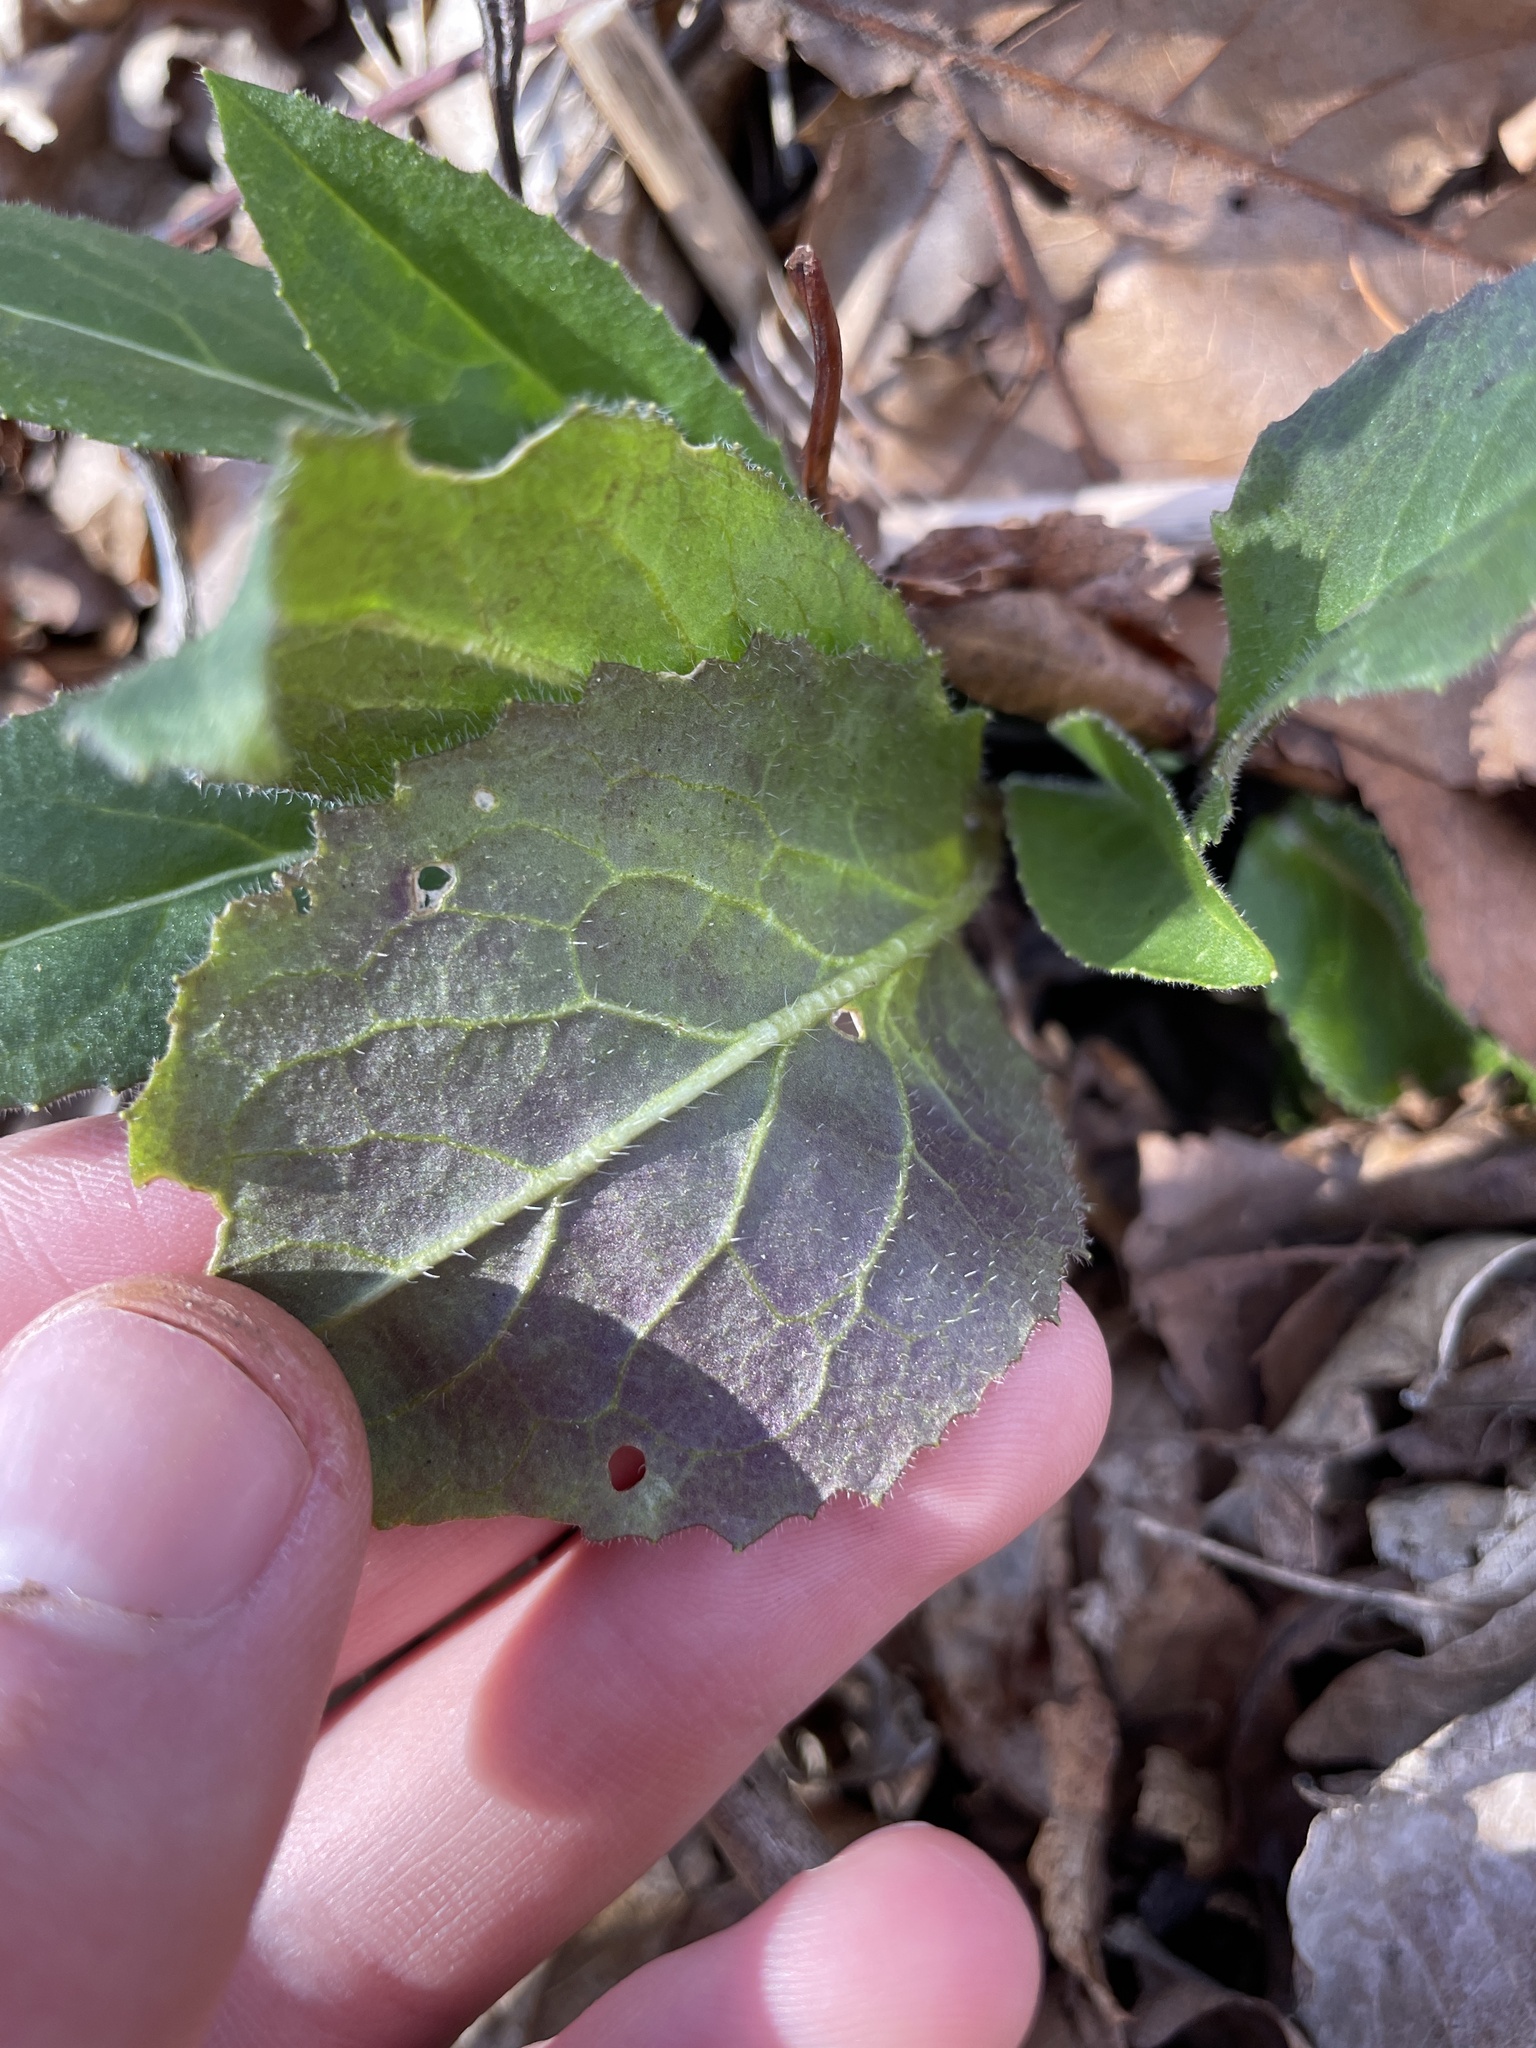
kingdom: Plantae
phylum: Tracheophyta
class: Magnoliopsida
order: Brassicales
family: Brassicaceae
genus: Hesperis
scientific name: Hesperis matronalis
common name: Dame's-violet
